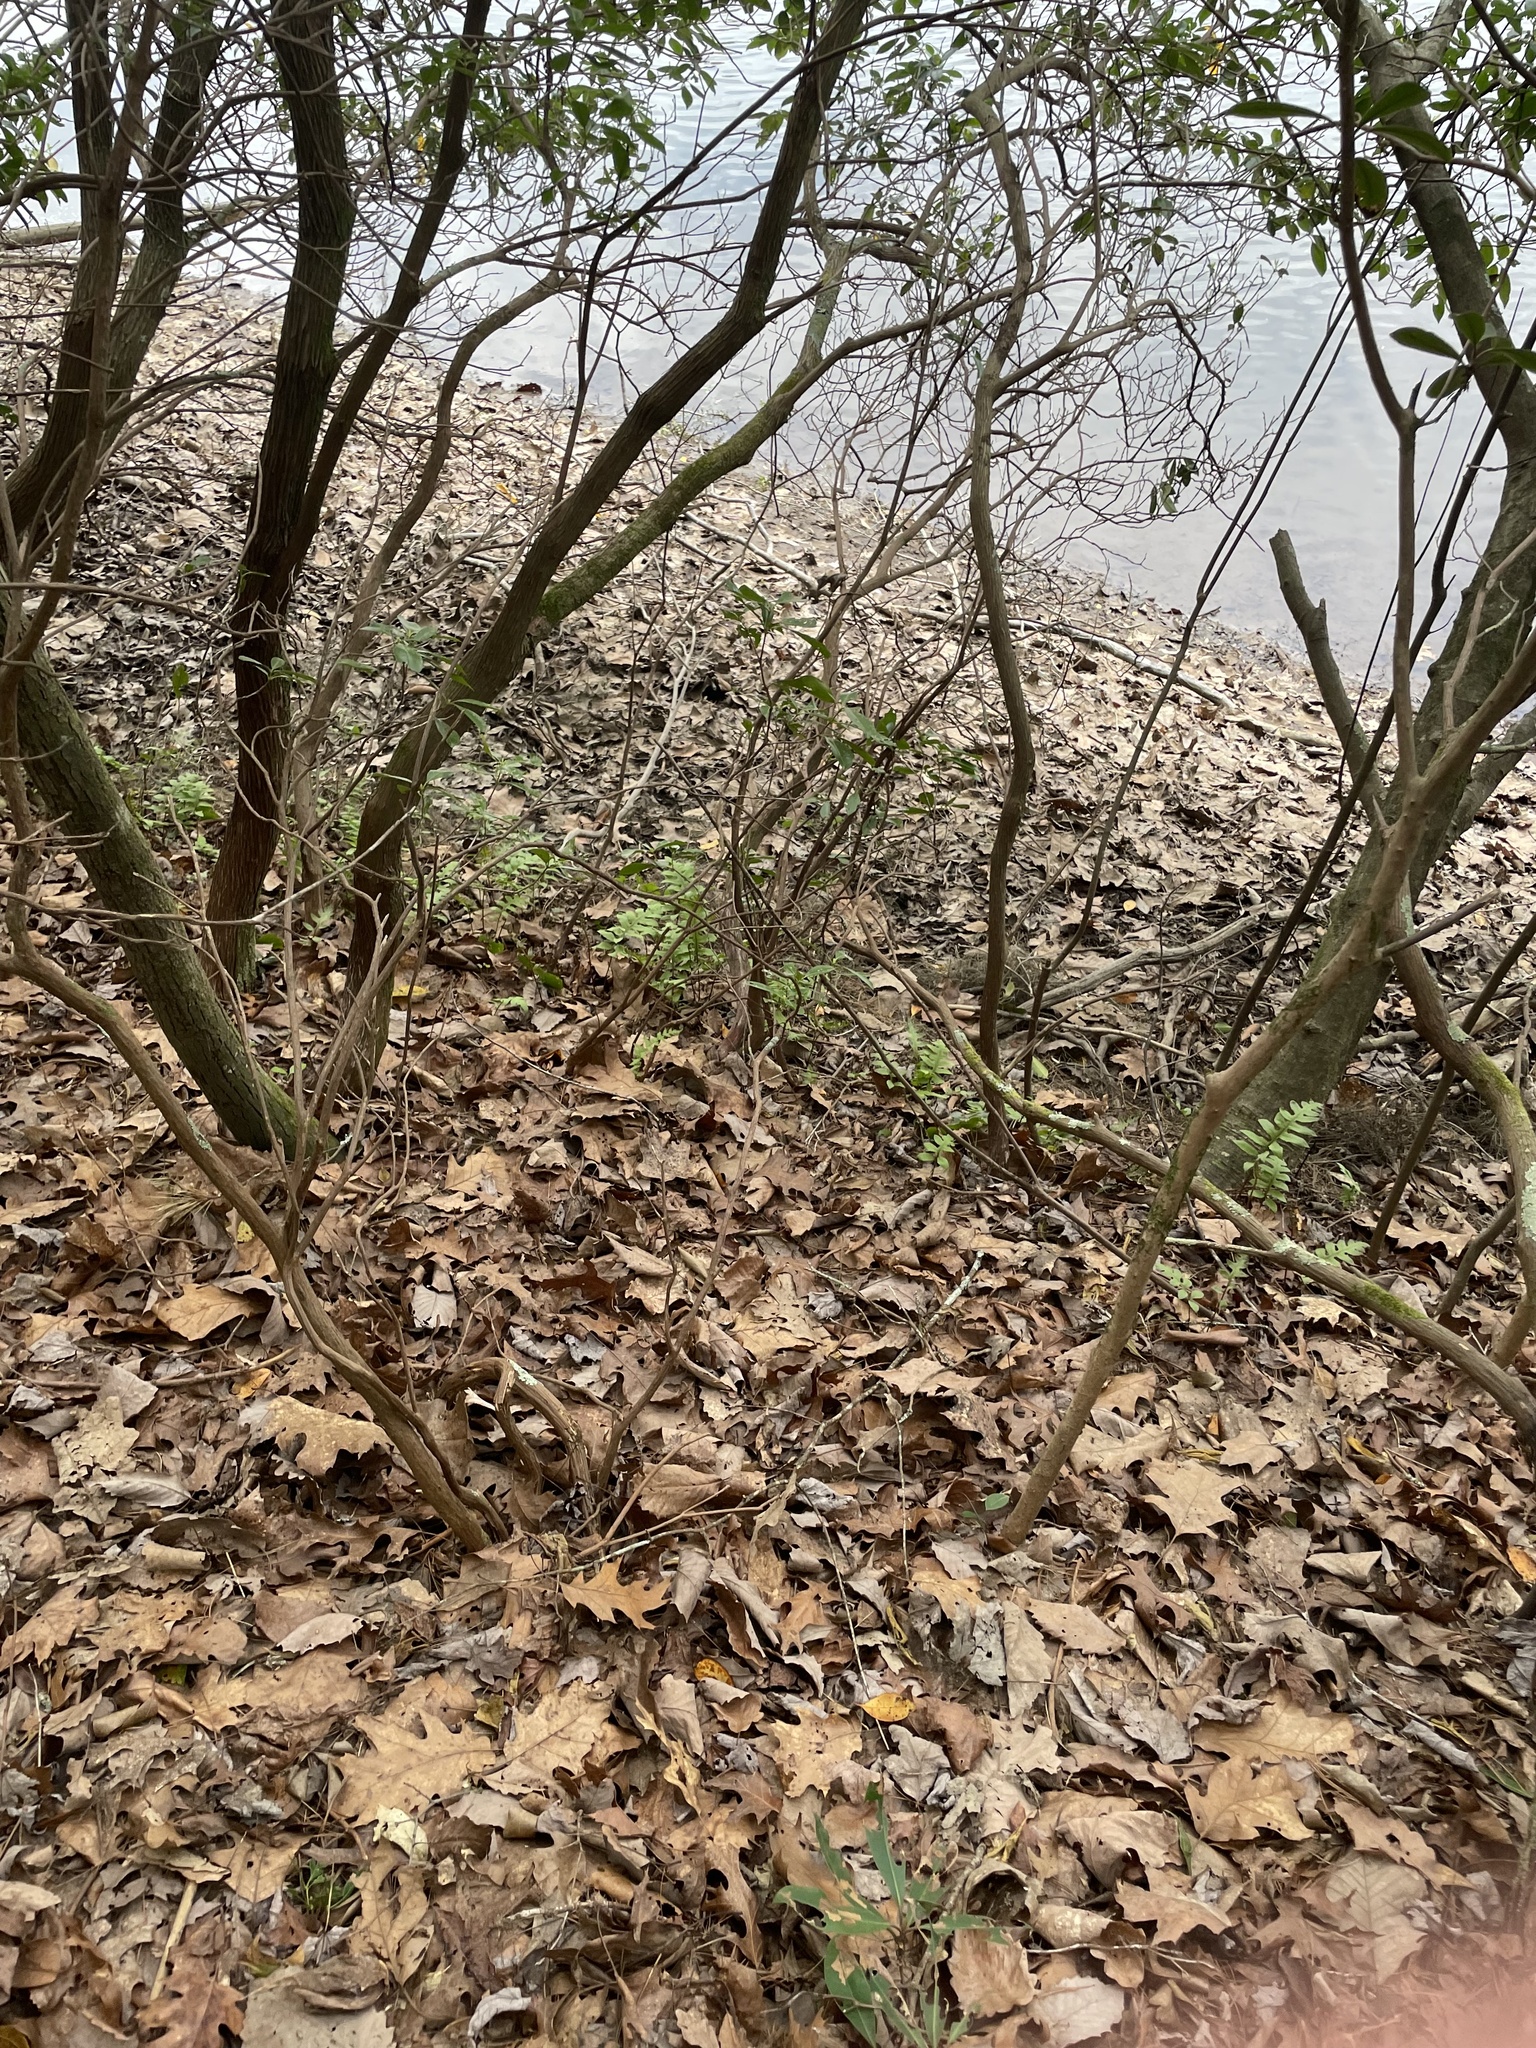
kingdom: Plantae
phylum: Tracheophyta
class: Polypodiopsida
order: Polypodiales
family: Blechnaceae
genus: Lorinseria
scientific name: Lorinseria areolata
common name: Dwarf chain fern
